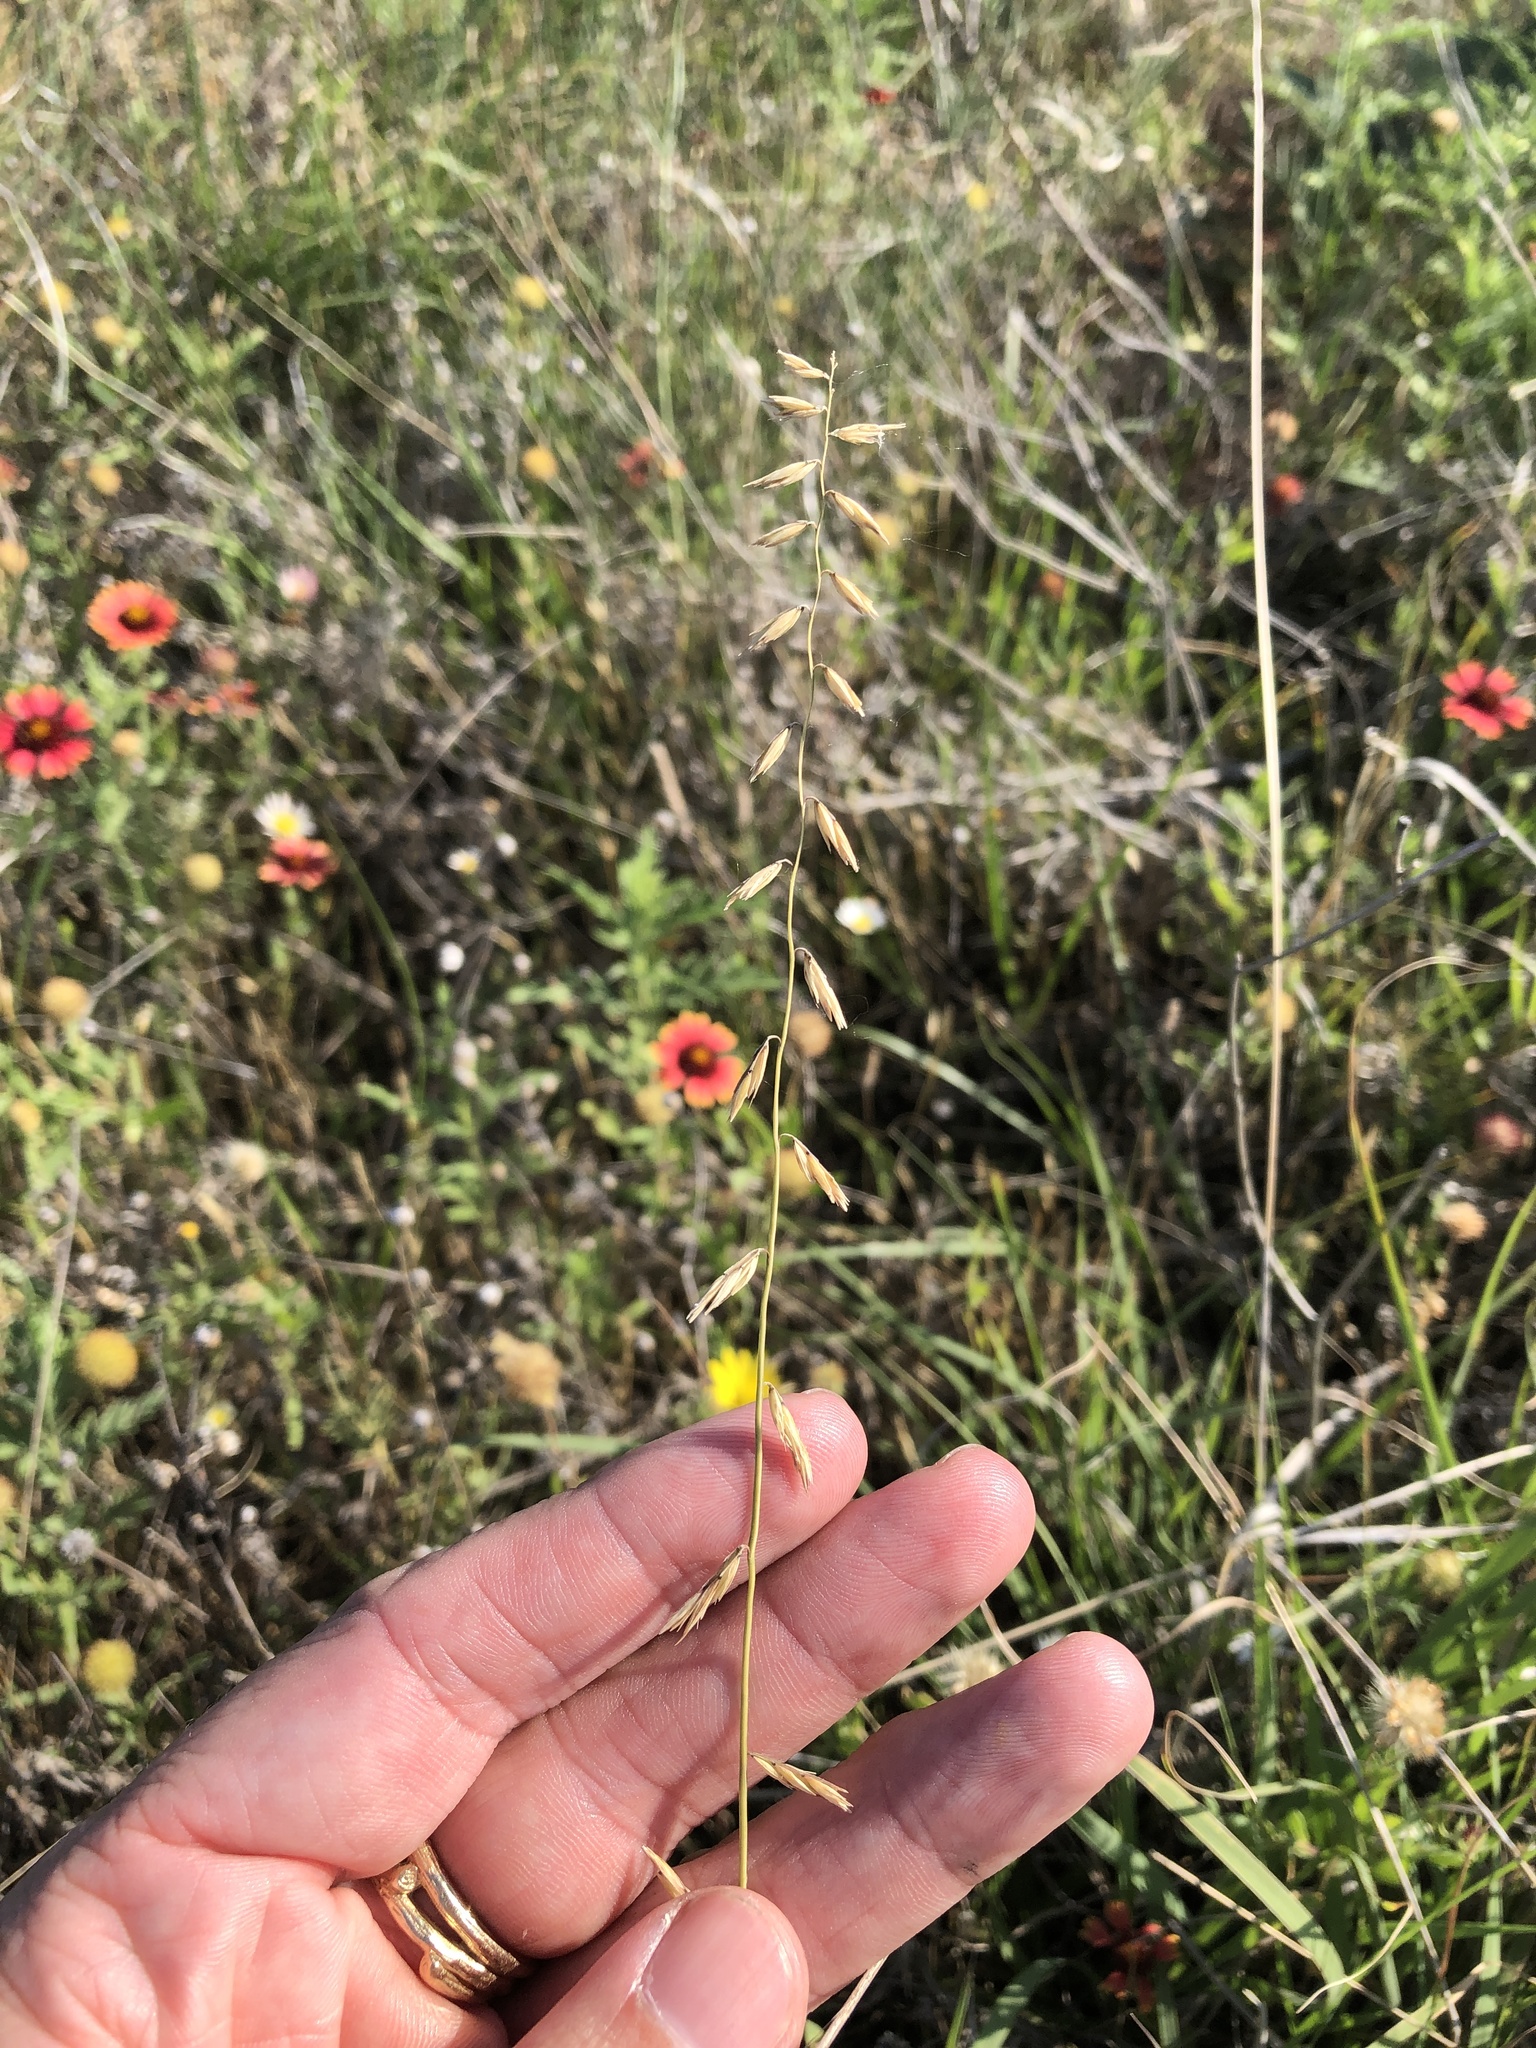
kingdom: Plantae
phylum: Tracheophyta
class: Liliopsida
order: Poales
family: Poaceae
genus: Bouteloua
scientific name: Bouteloua curtipendula
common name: Side-oats grama
